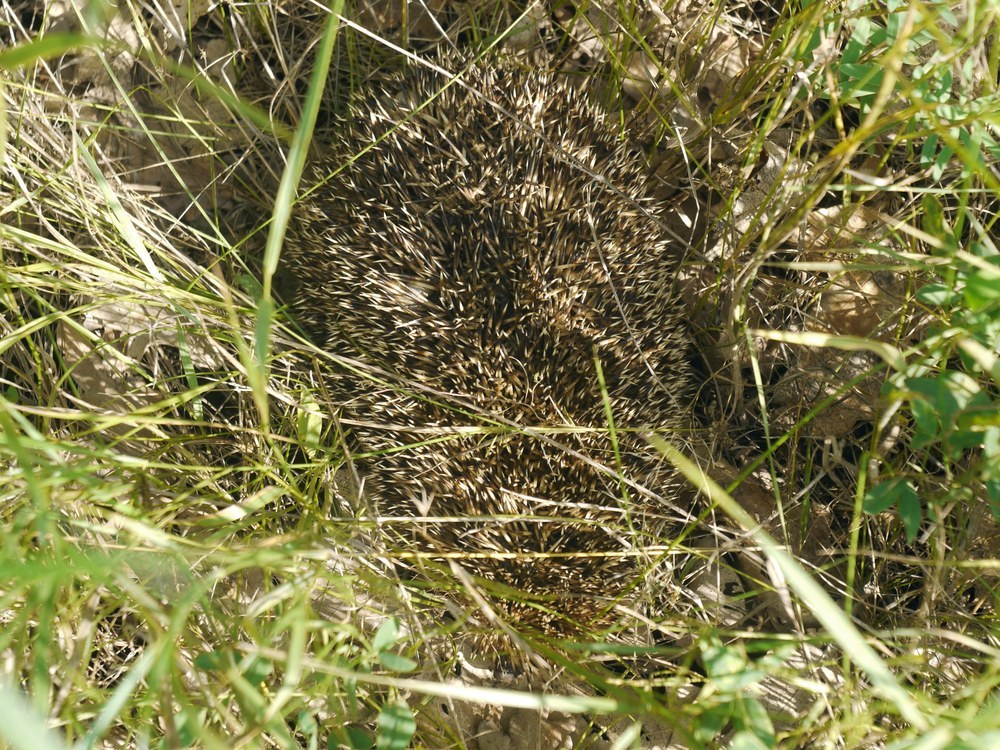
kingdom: Animalia
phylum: Chordata
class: Mammalia
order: Erinaceomorpha
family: Erinaceidae
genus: Erinaceus
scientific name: Erinaceus roumanicus
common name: Northern white-breasted hedgehog
